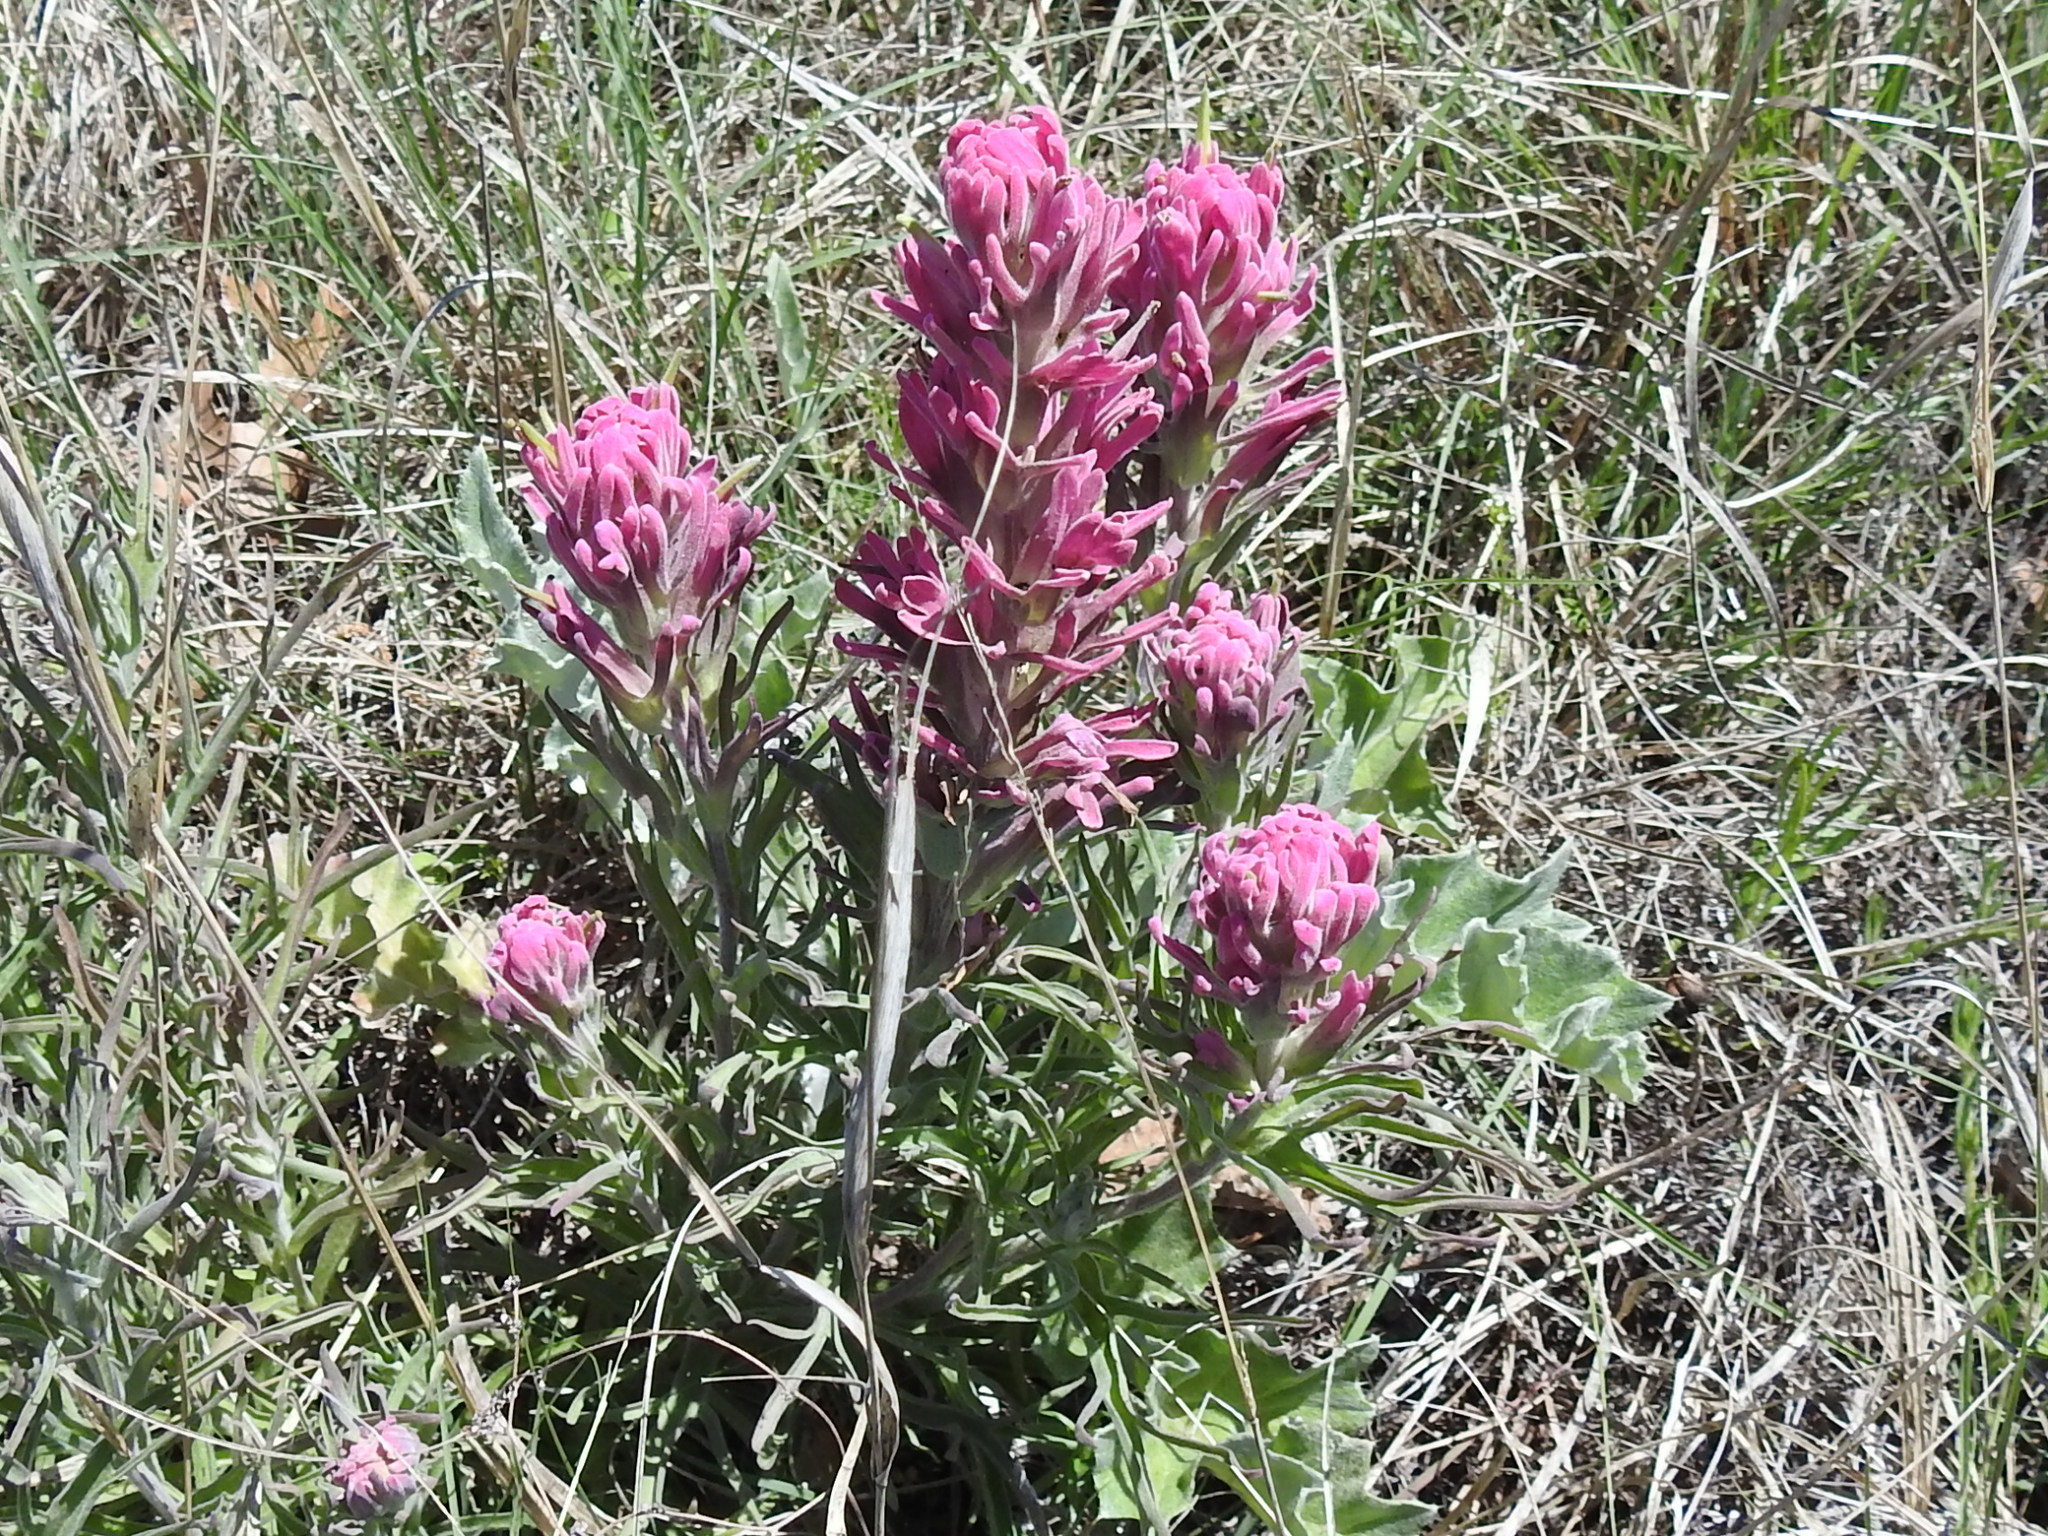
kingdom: Plantae
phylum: Tracheophyta
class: Magnoliopsida
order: Lamiales
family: Orobanchaceae
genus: Castilleja
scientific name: Castilleja purpurea
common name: Plains paintbrush
